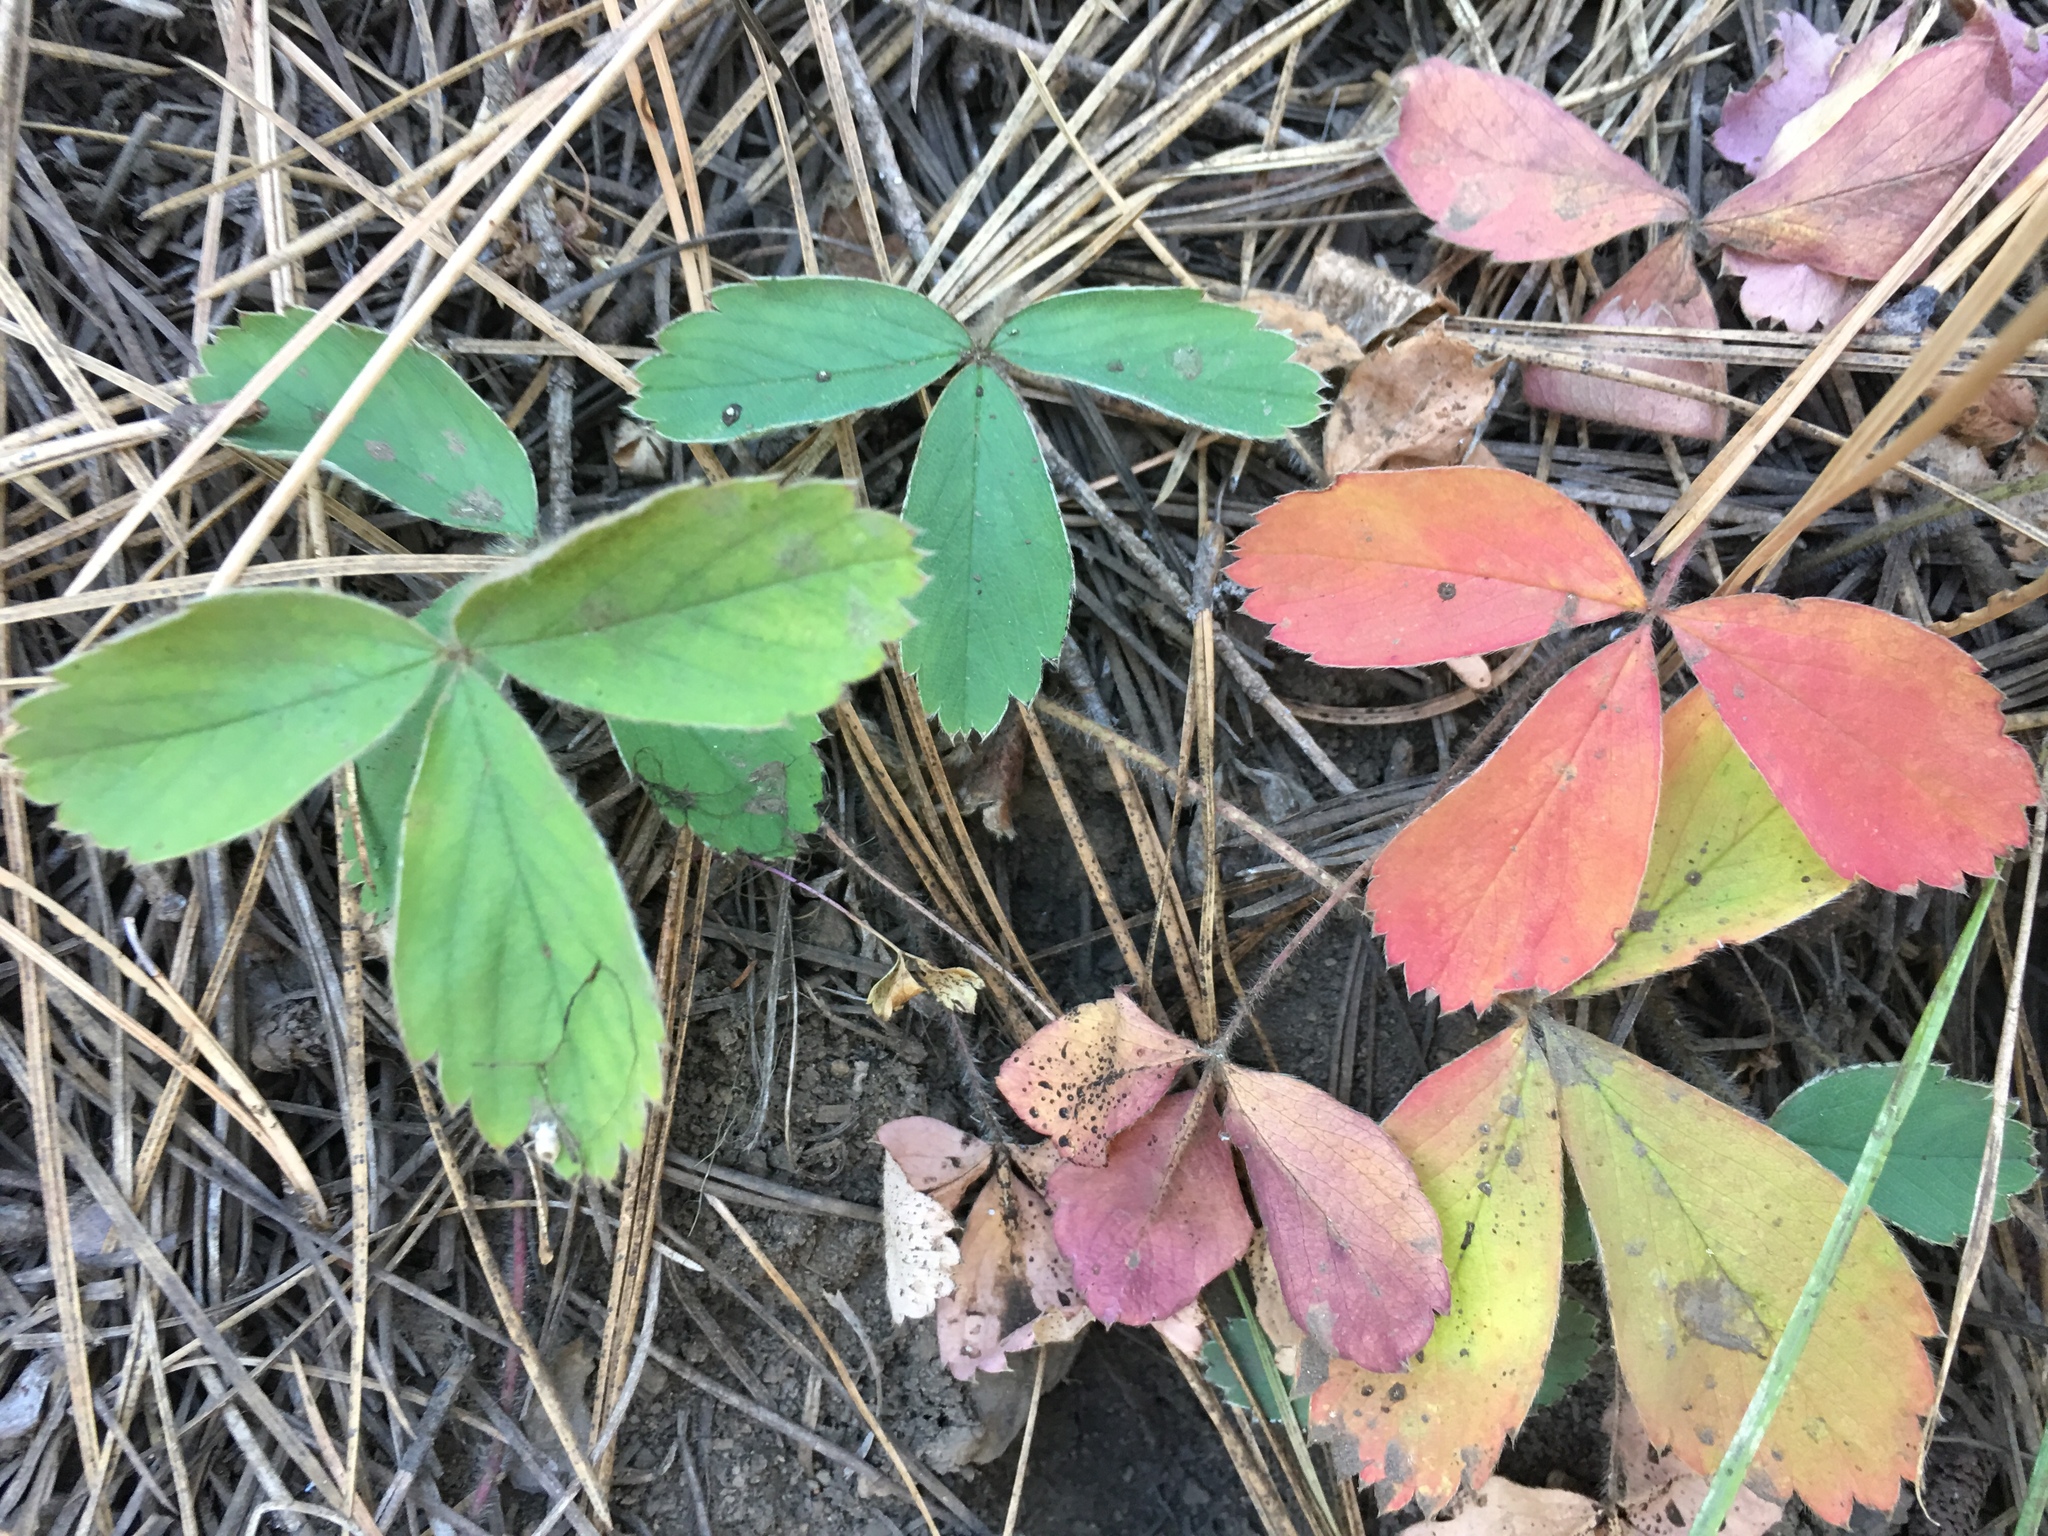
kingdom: Plantae
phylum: Tracheophyta
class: Magnoliopsida
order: Rosales
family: Rosaceae
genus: Fragaria
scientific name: Fragaria virginiana
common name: Thickleaved wild strawberry
